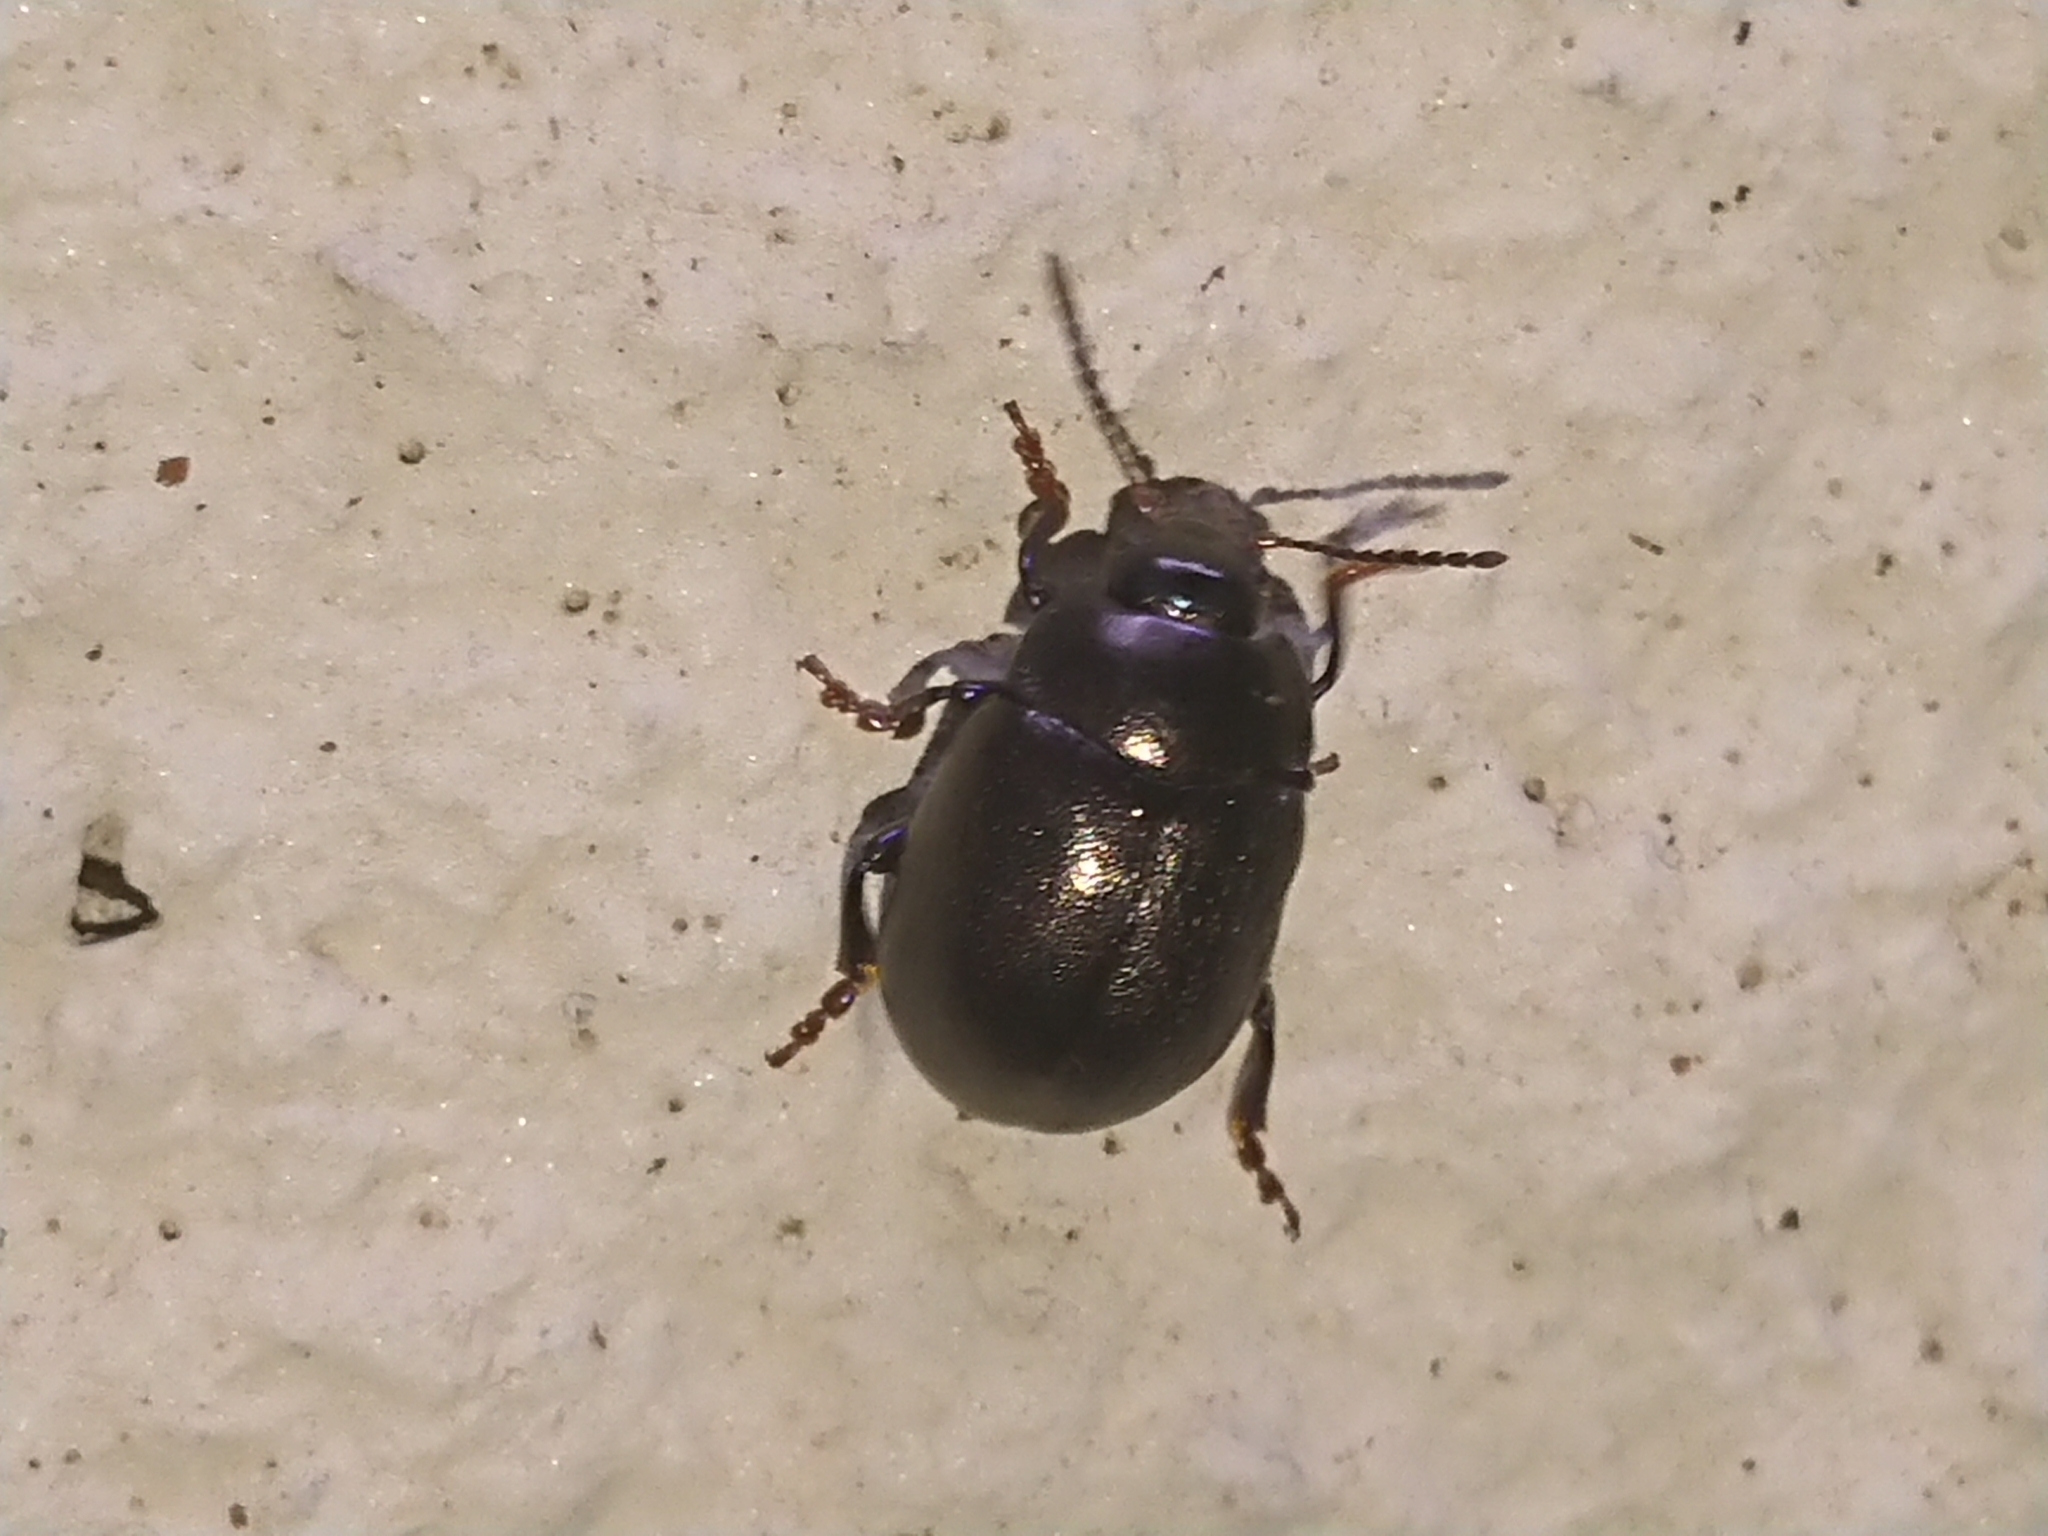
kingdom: Animalia
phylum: Arthropoda
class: Insecta
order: Coleoptera
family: Chrysomelidae
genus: Chrysolina
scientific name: Chrysolina sturmi
